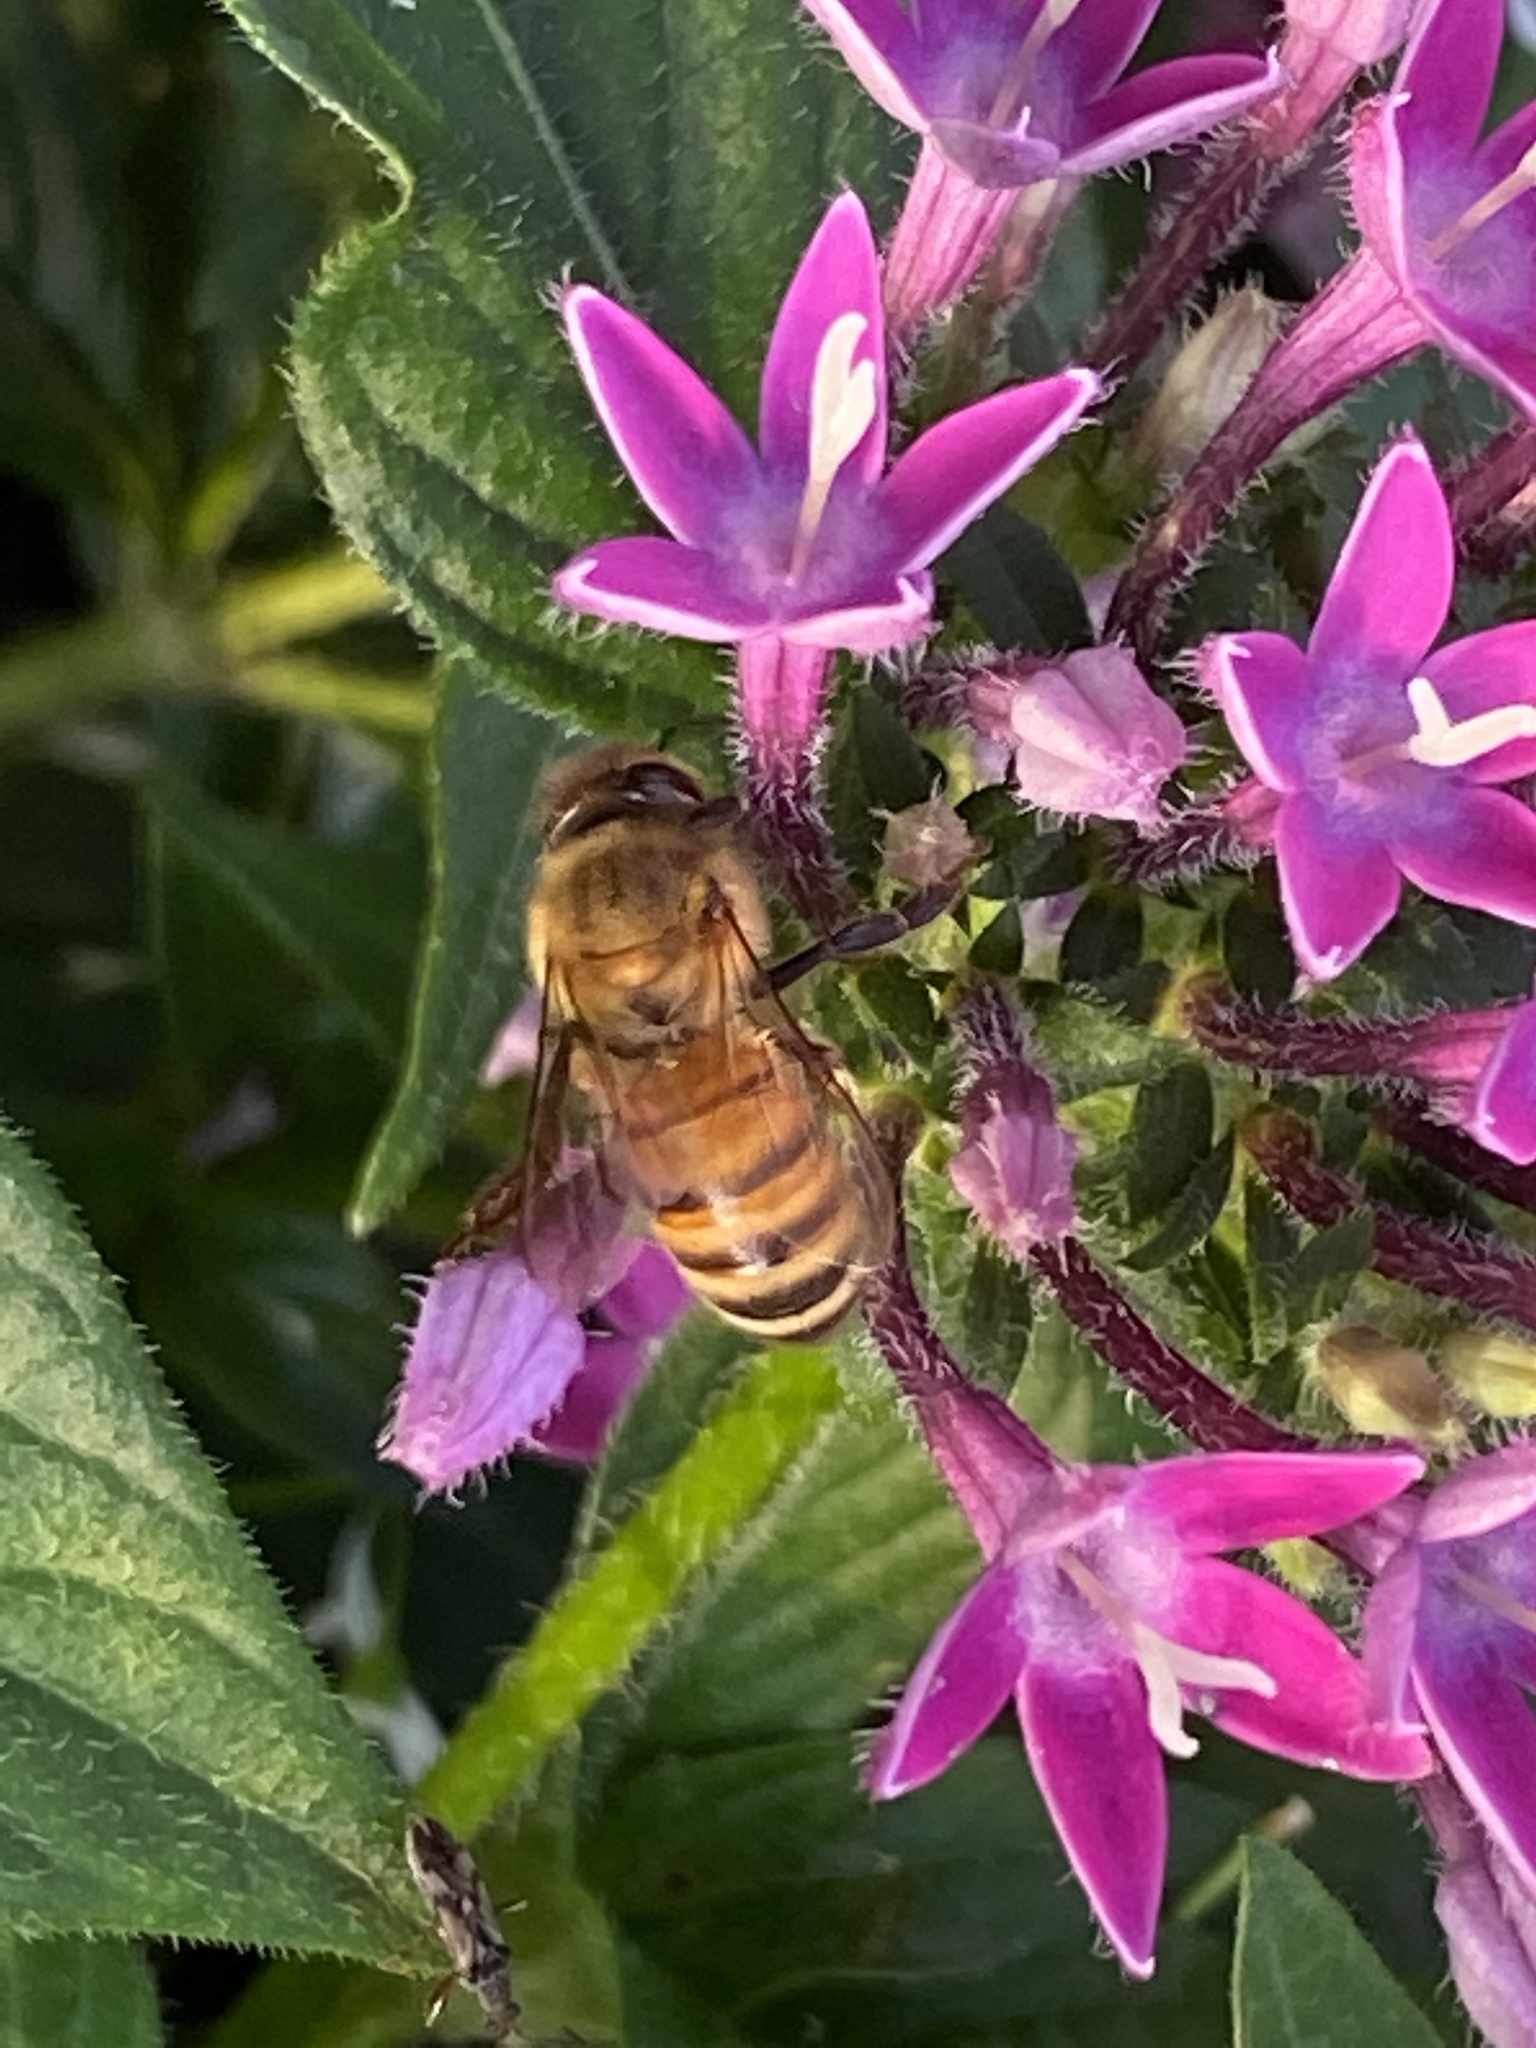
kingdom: Animalia
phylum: Arthropoda
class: Insecta
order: Hymenoptera
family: Apidae
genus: Apis
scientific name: Apis mellifera
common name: Honey bee
